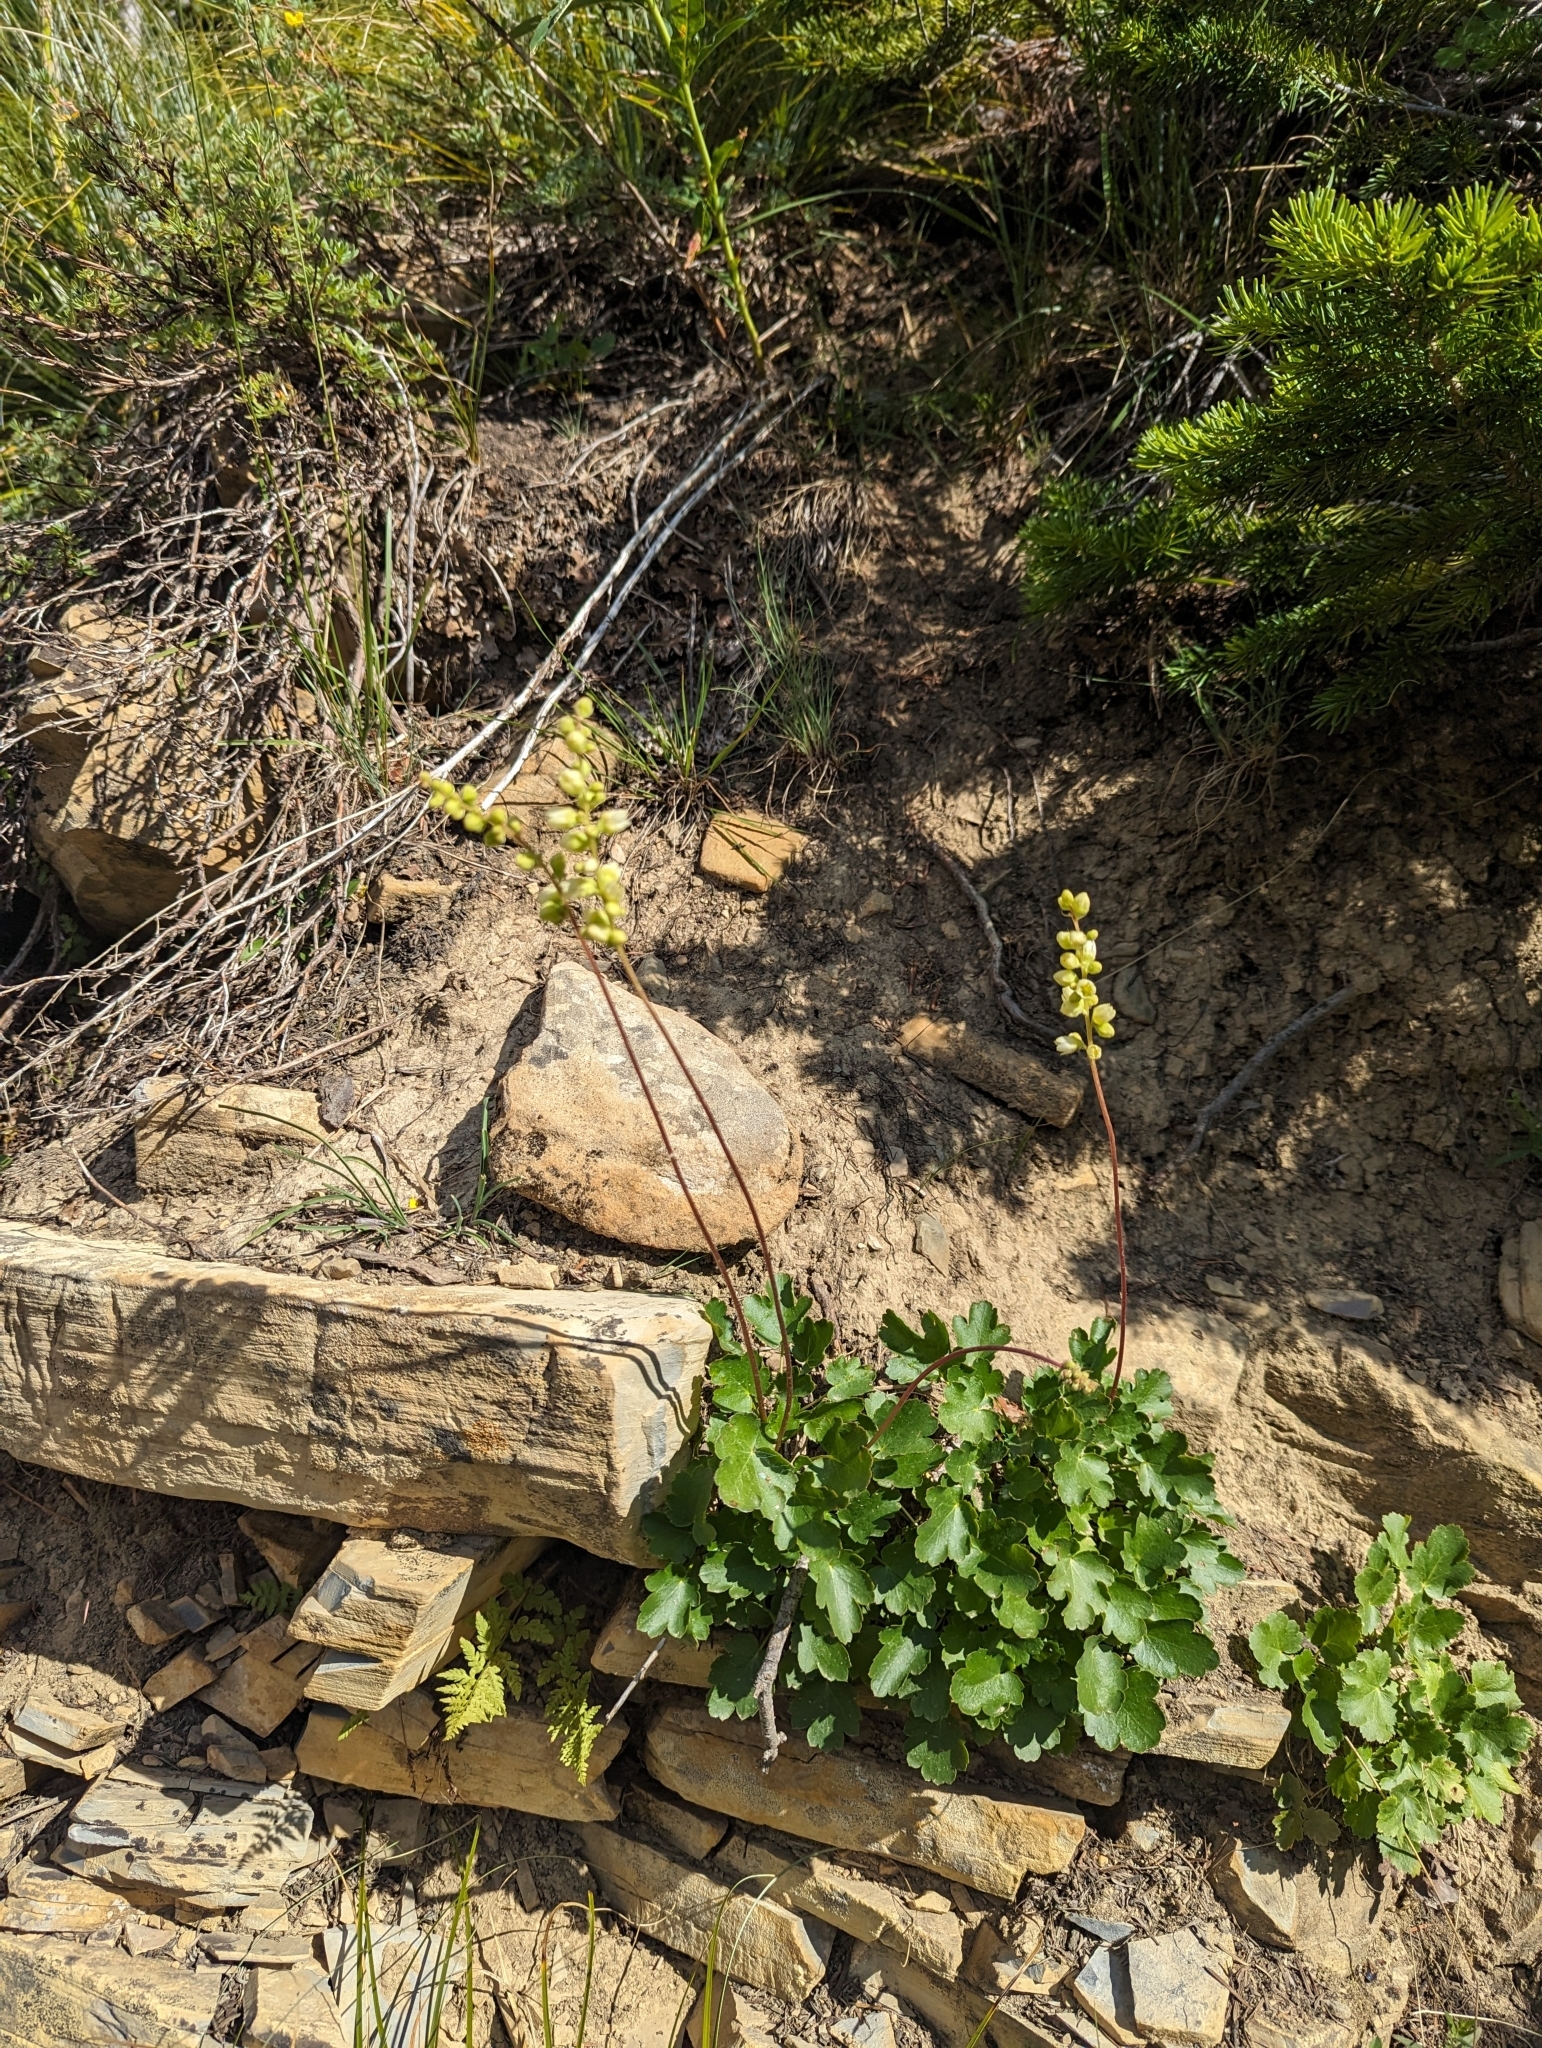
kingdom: Plantae
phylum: Tracheophyta
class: Magnoliopsida
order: Saxifragales
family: Saxifragaceae
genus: Heuchera
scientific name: Heuchera cylindrica
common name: Mat alumroot
